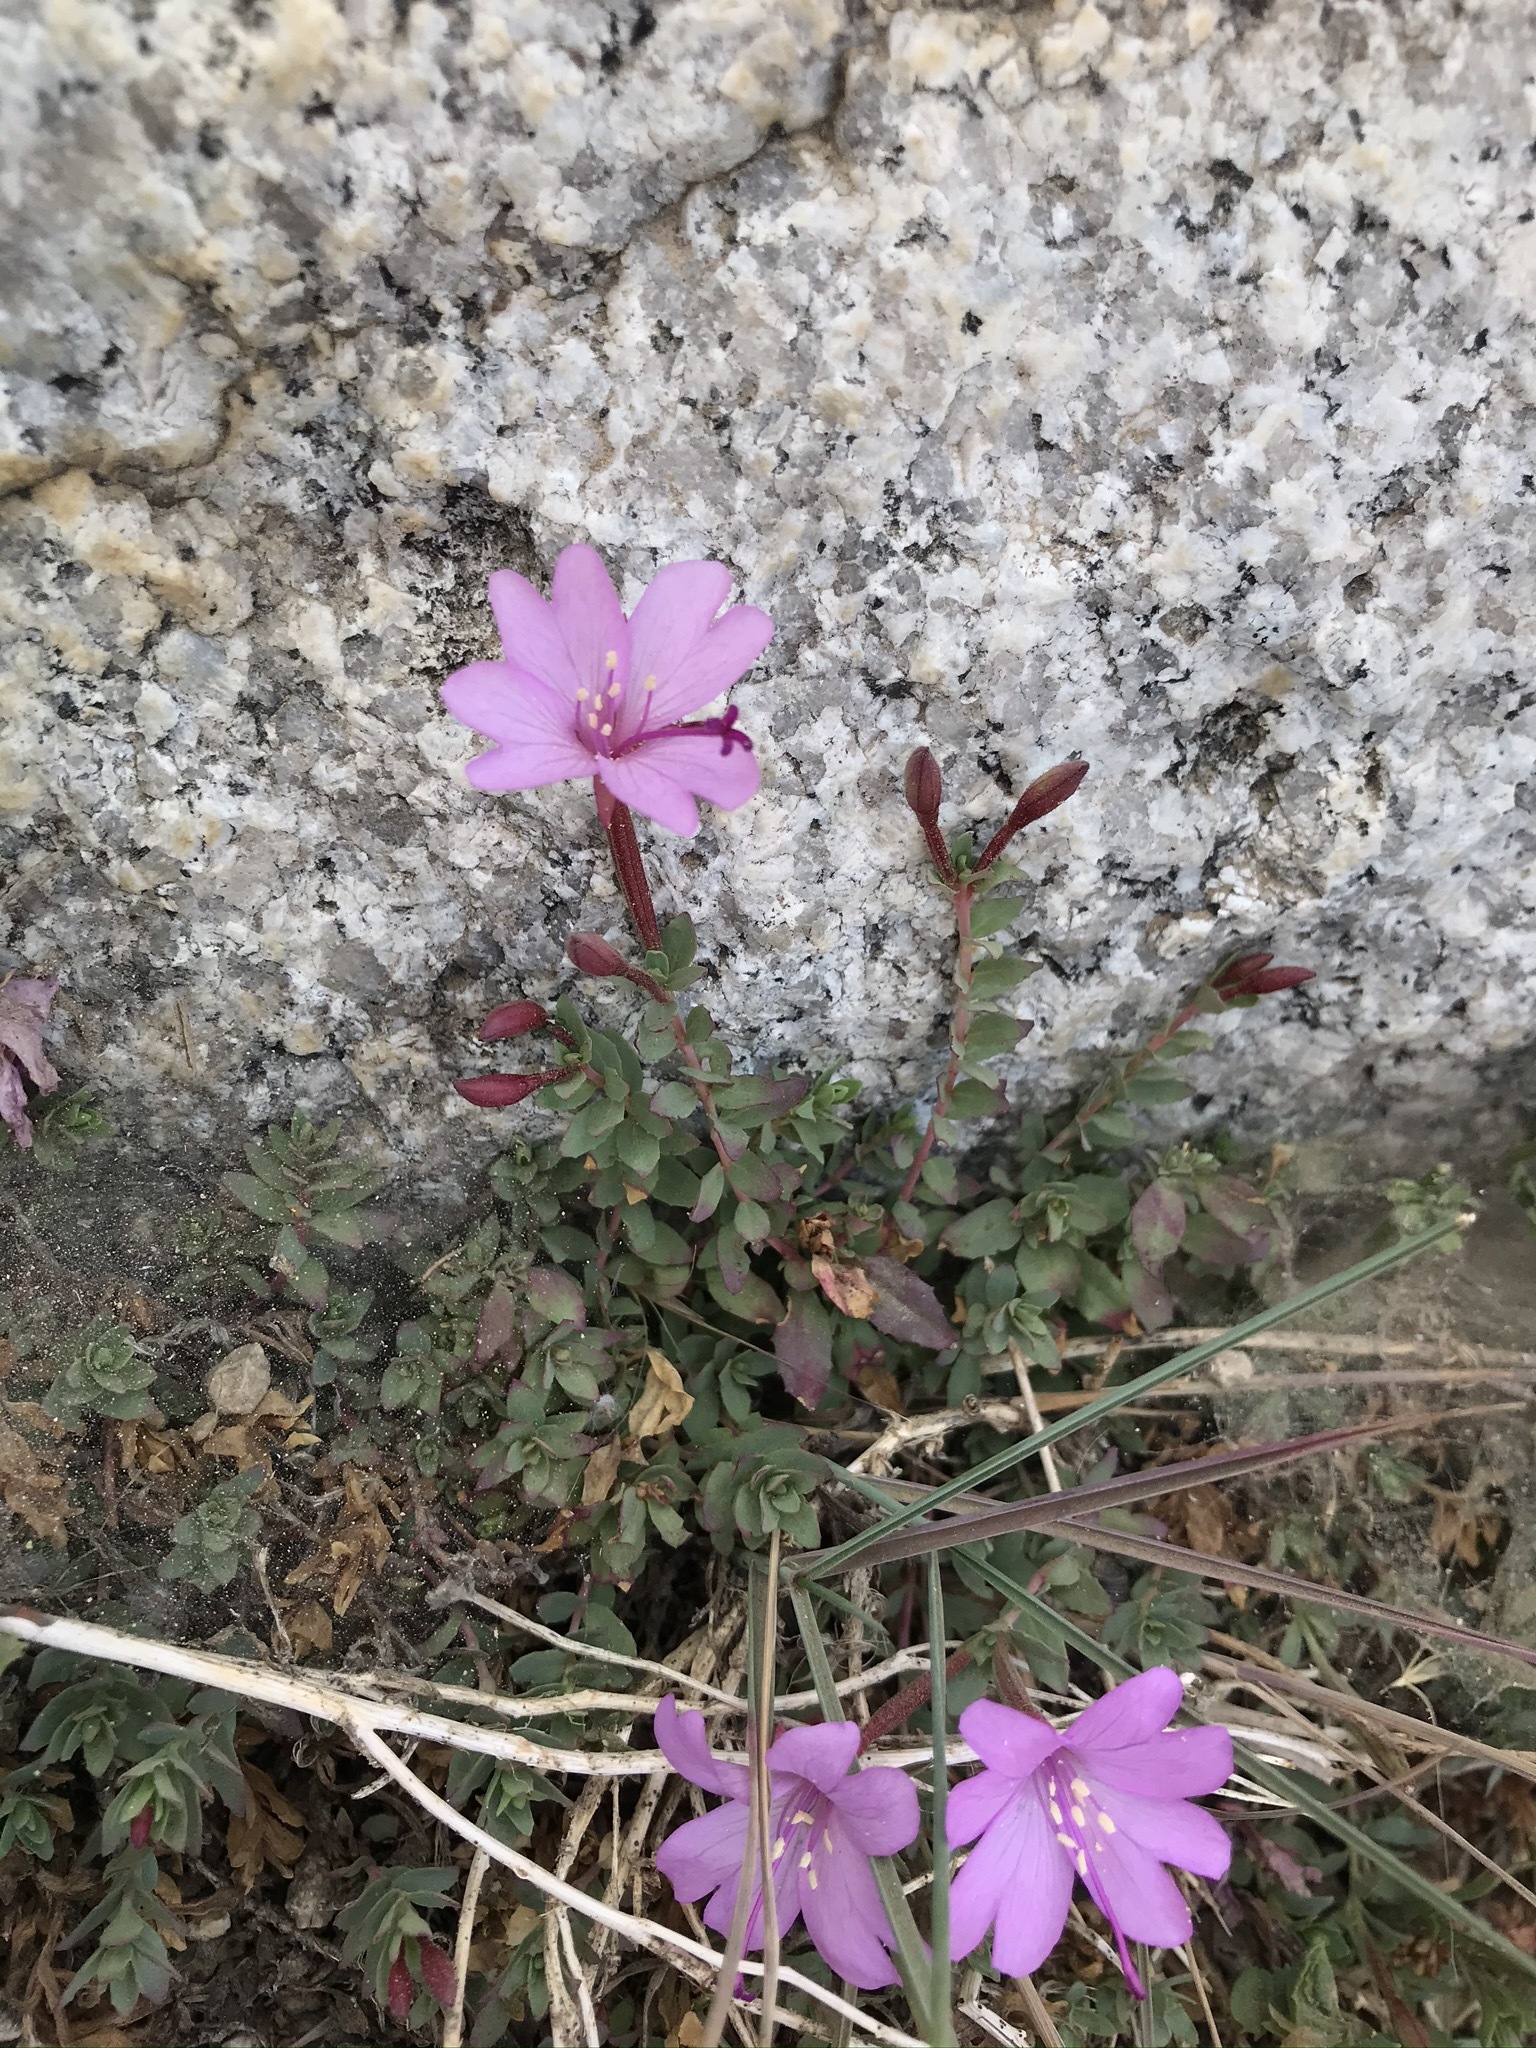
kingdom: Plantae
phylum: Tracheophyta
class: Magnoliopsida
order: Myrtales
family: Onagraceae
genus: Epilobium
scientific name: Epilobium obcordatum
